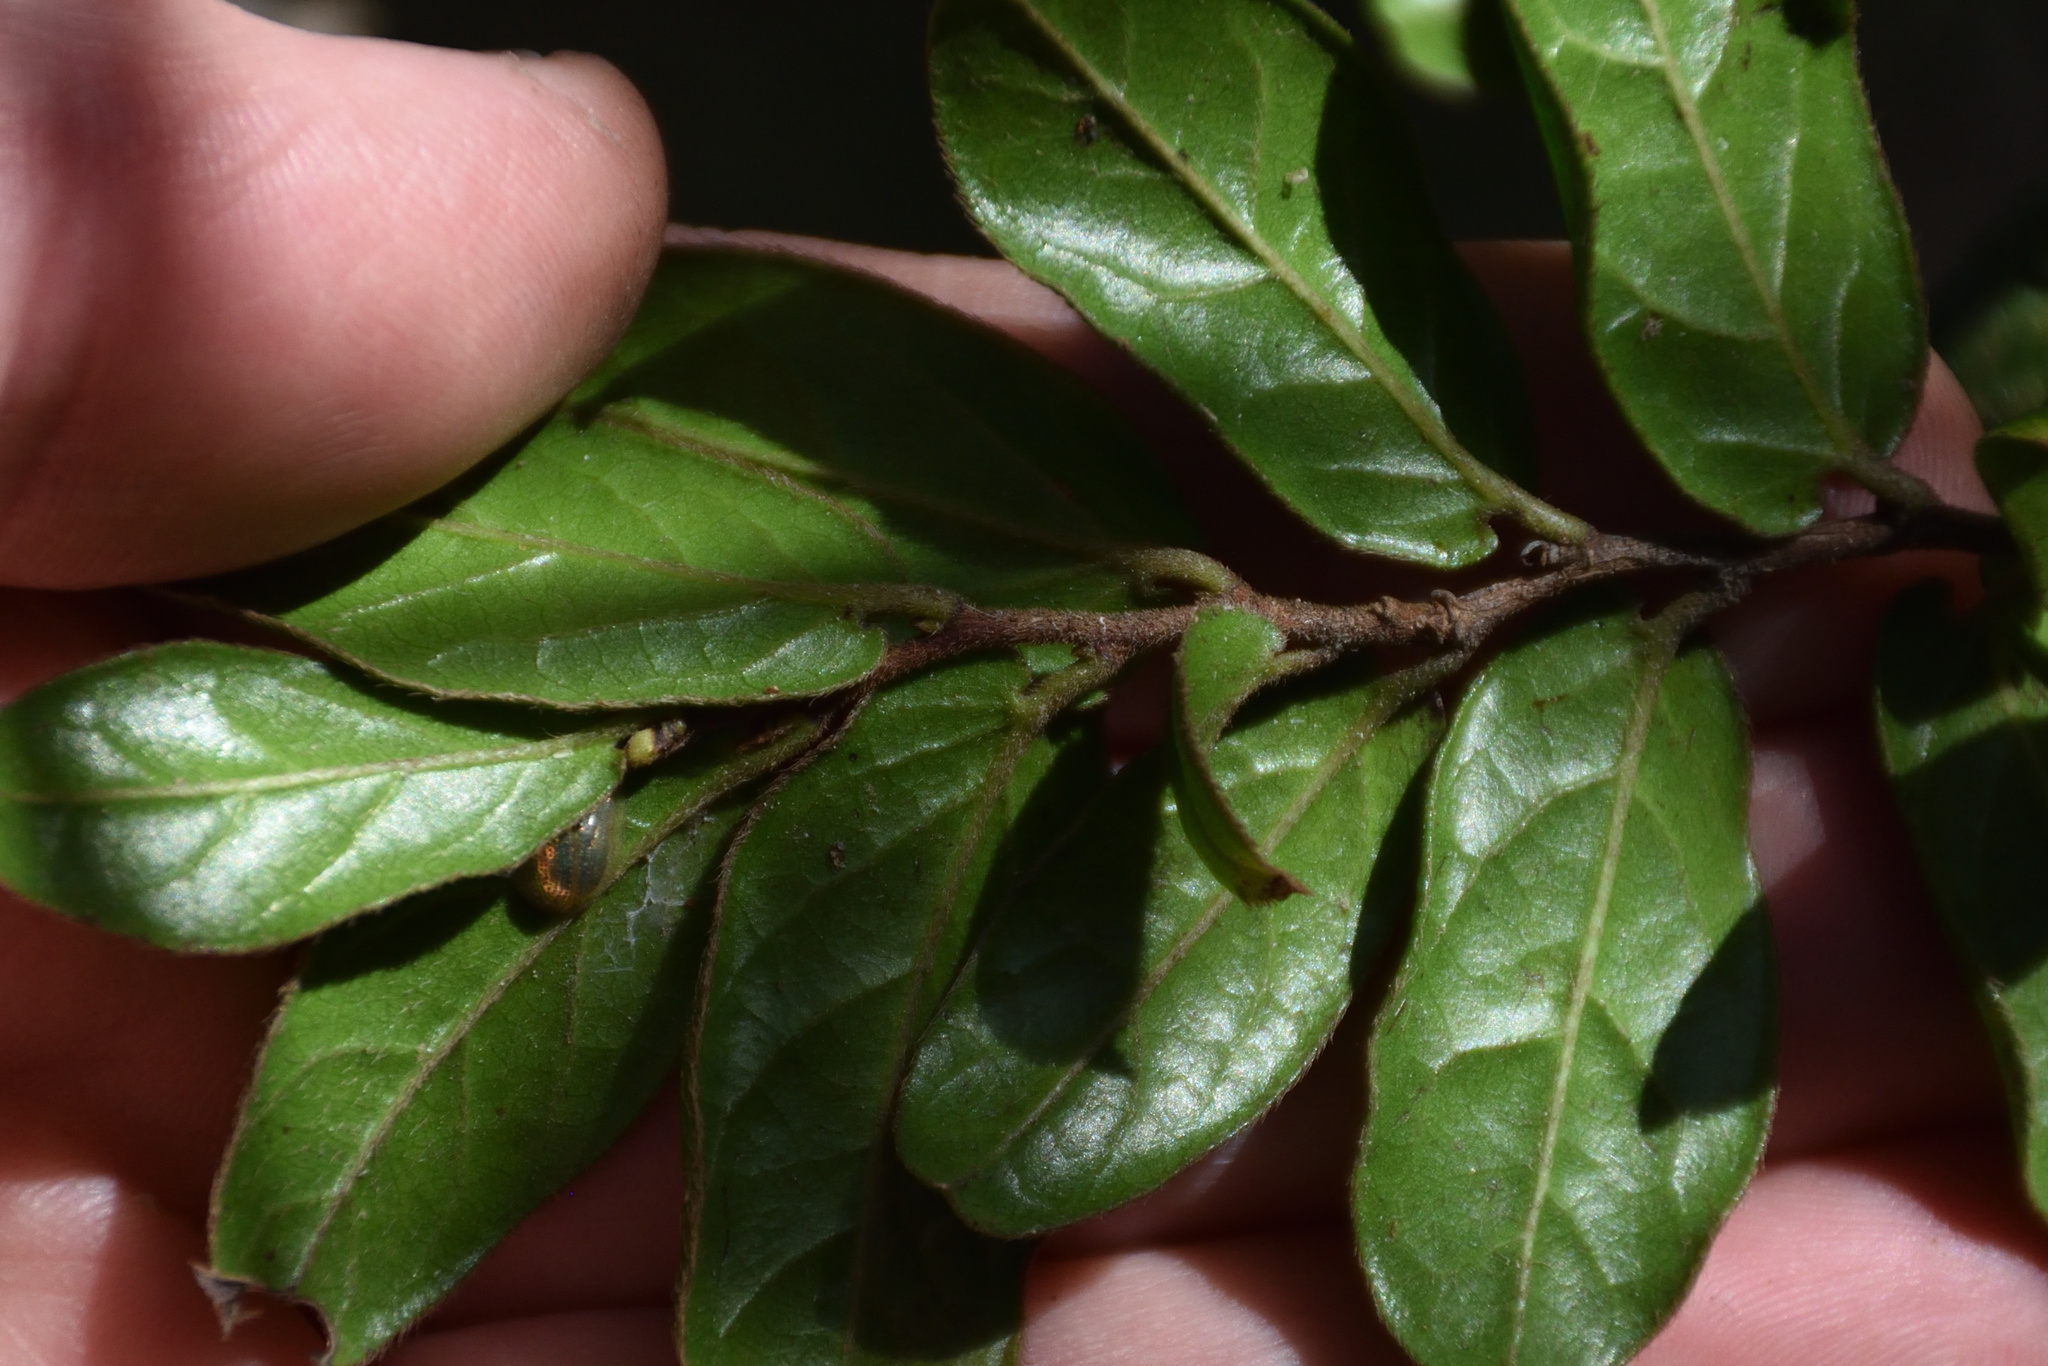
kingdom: Plantae
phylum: Tracheophyta
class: Magnoliopsida
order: Rosales
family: Rhamnaceae
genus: Rhamnus
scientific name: Rhamnus prinoides
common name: Dogwood
